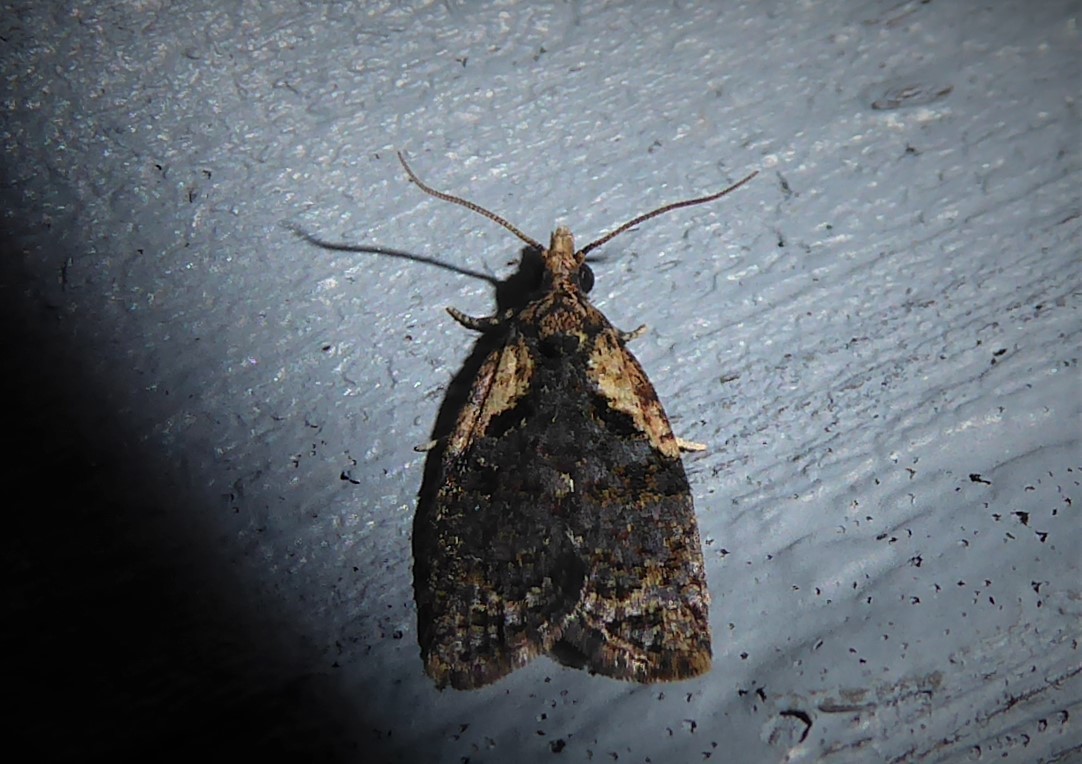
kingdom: Animalia
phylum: Arthropoda
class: Insecta
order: Lepidoptera
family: Tortricidae
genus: Capua
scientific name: Capua intractana
